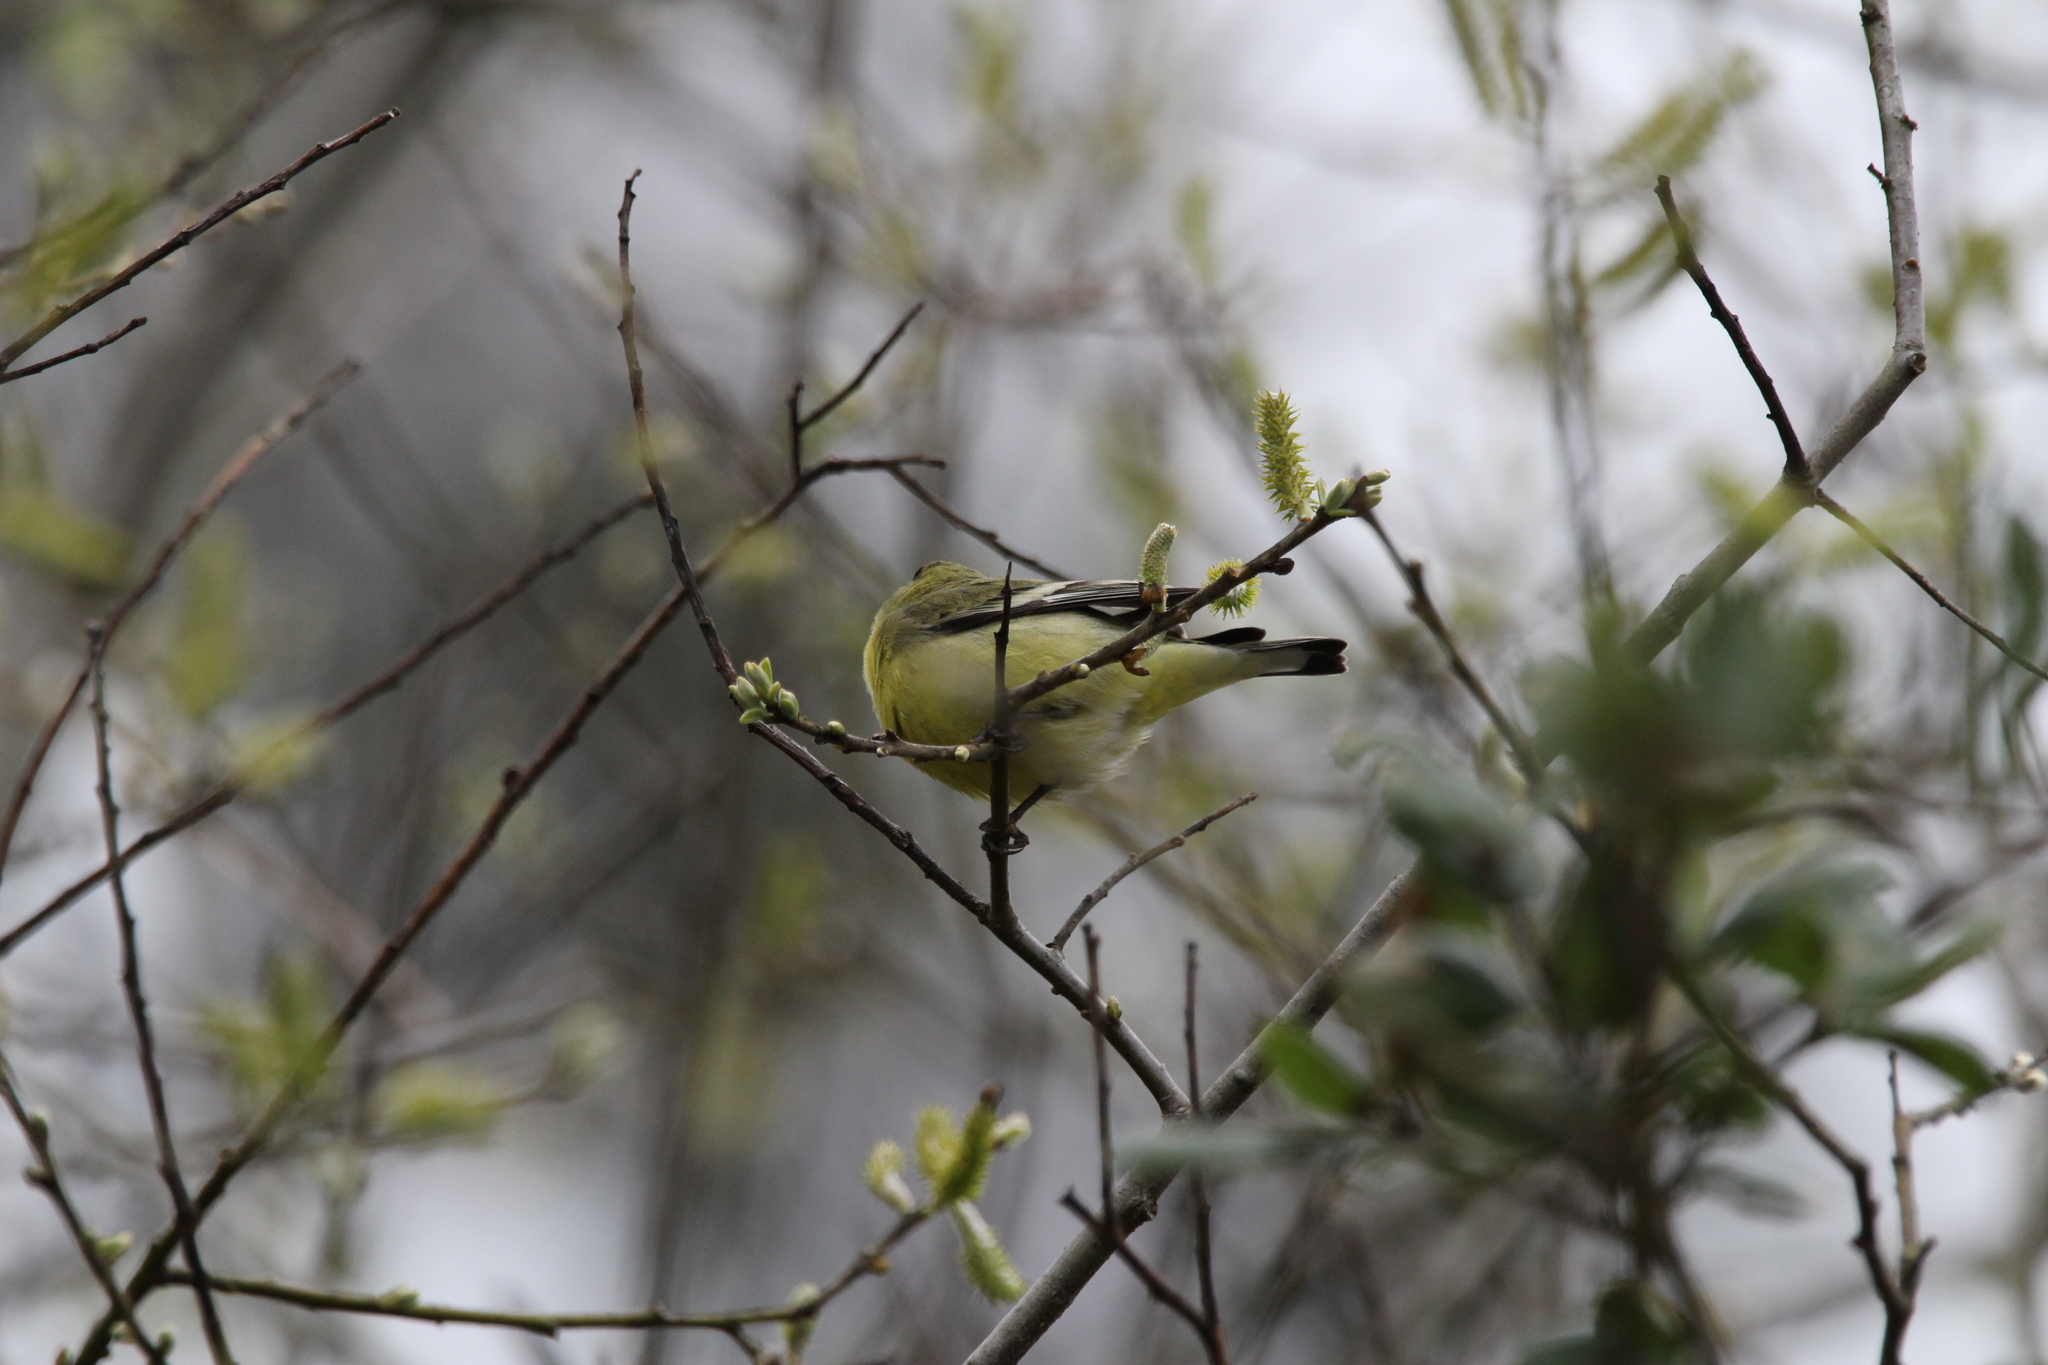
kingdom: Animalia
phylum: Chordata
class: Aves
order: Passeriformes
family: Fringillidae
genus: Spinus
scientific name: Spinus psaltria
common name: Lesser goldfinch
